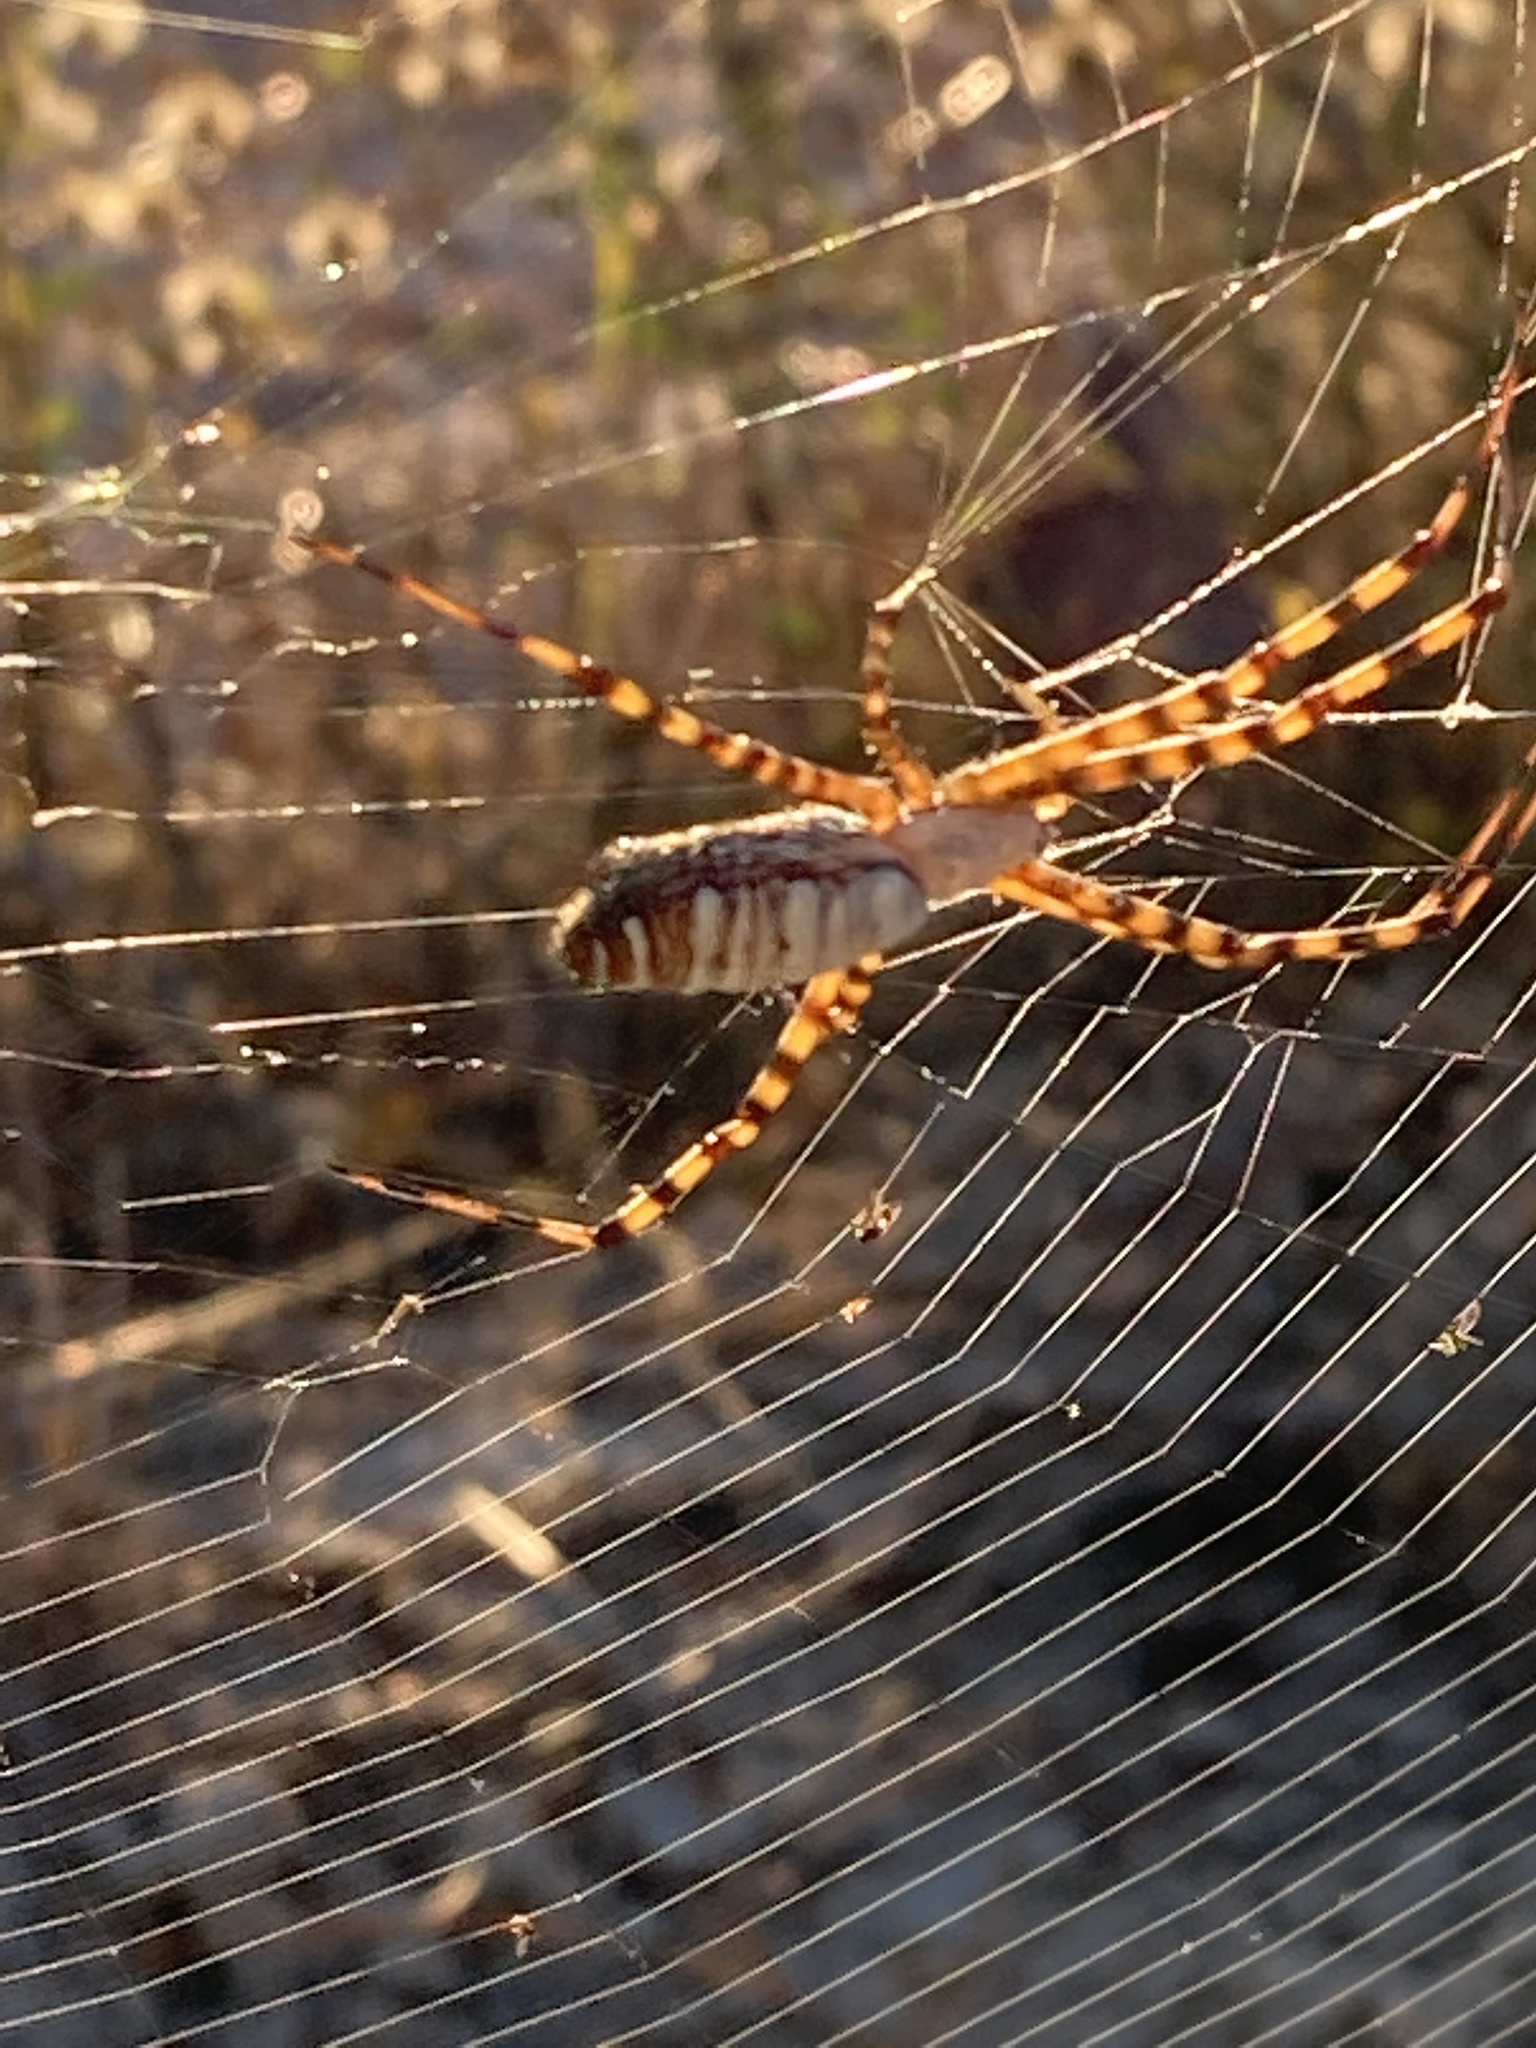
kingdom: Animalia
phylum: Arthropoda
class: Arachnida
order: Araneae
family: Araneidae
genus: Argiope
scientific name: Argiope trifasciata
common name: Banded garden spider
